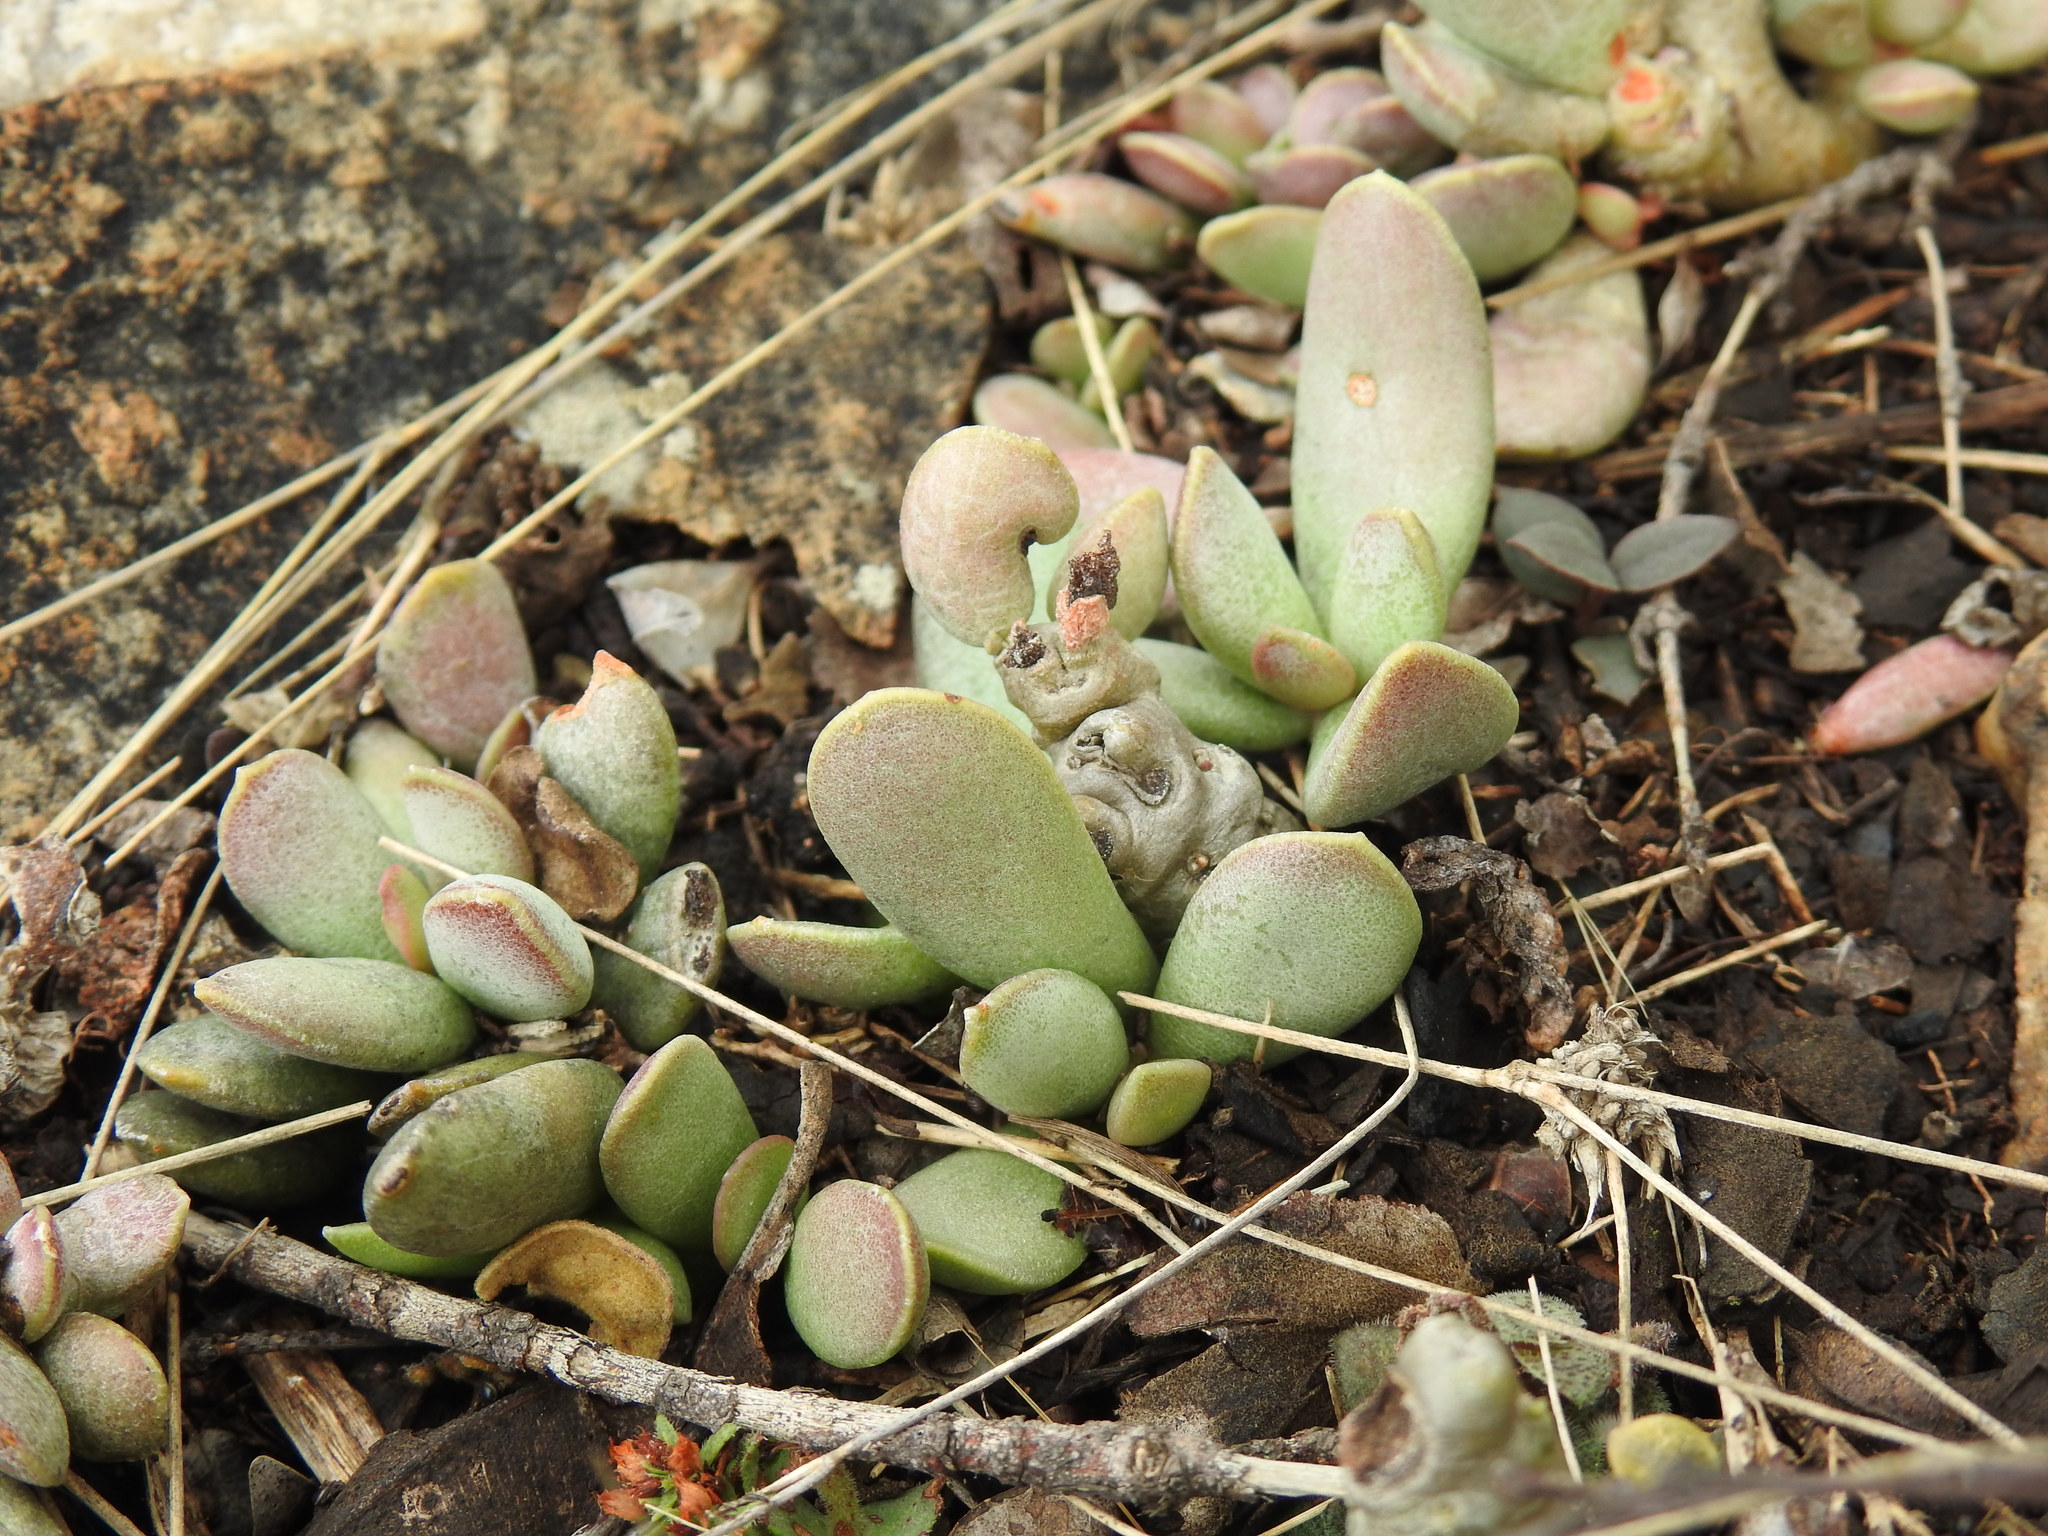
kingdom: Plantae
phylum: Tracheophyta
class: Magnoliopsida
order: Saxifragales
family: Crassulaceae
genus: Adromischus
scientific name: Adromischus umbraticola
